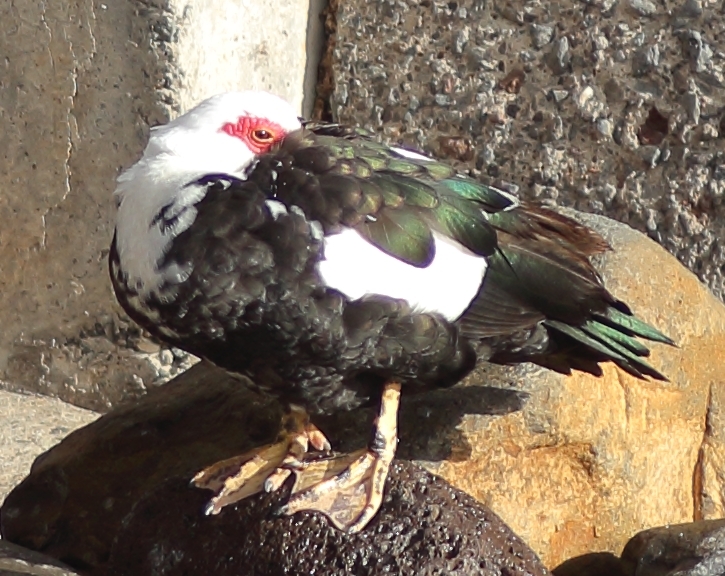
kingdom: Animalia
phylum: Chordata
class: Aves
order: Anseriformes
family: Anatidae
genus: Cairina
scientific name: Cairina moschata
